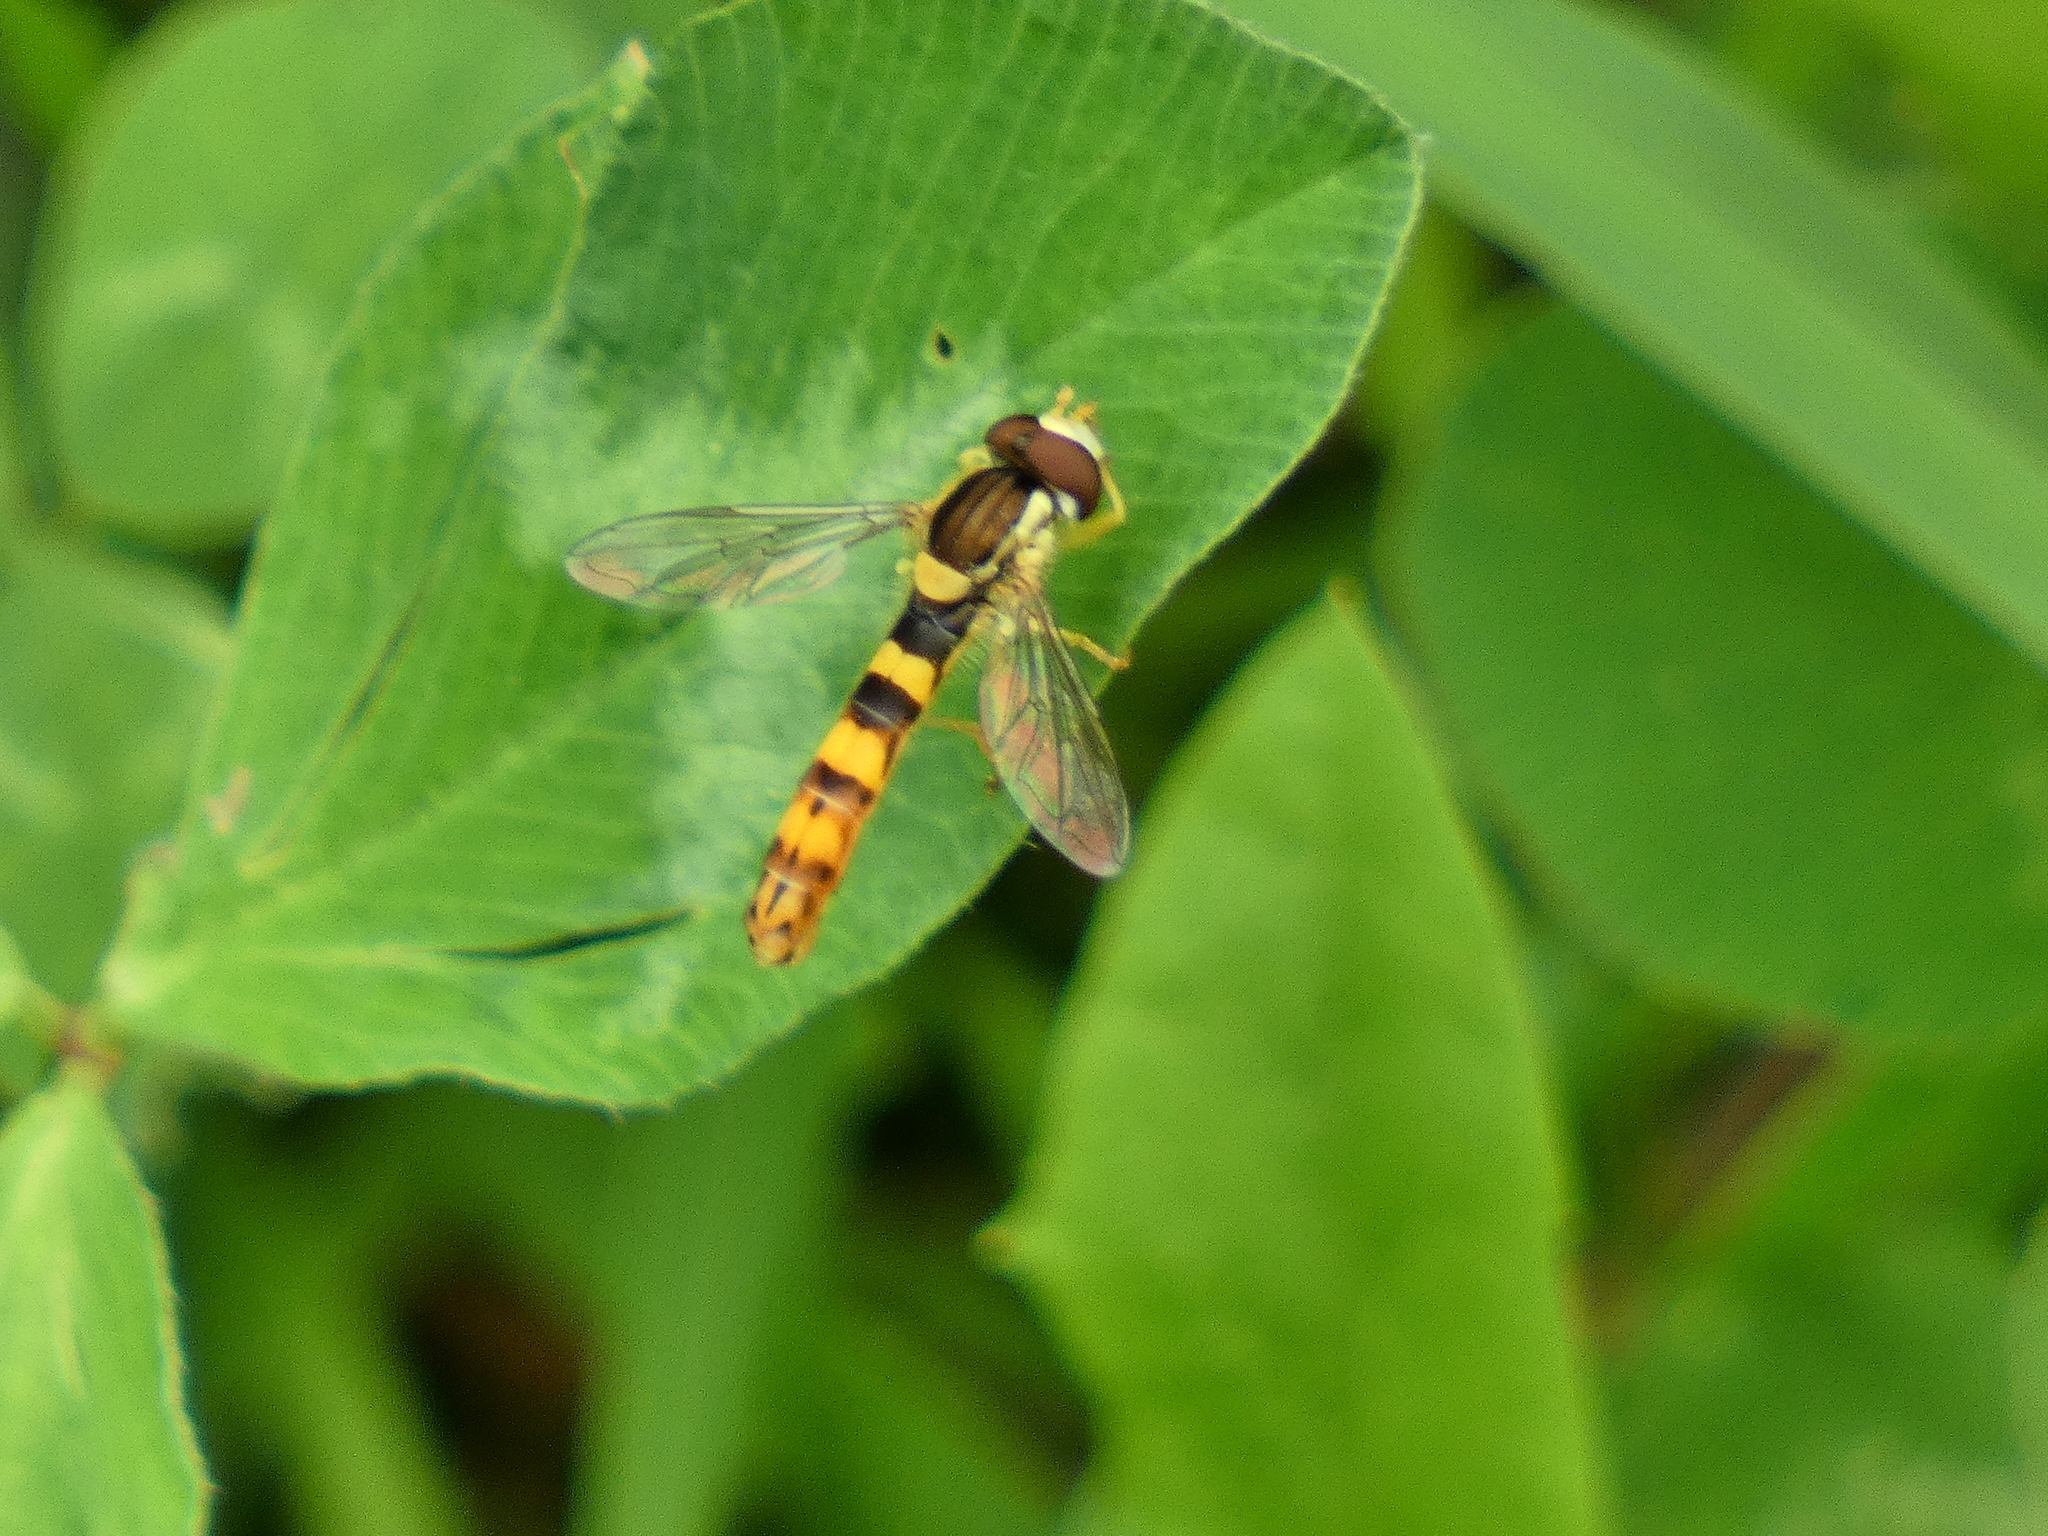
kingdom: Animalia
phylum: Arthropoda
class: Insecta
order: Diptera
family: Syrphidae
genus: Sphaerophoria
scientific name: Sphaerophoria scripta
